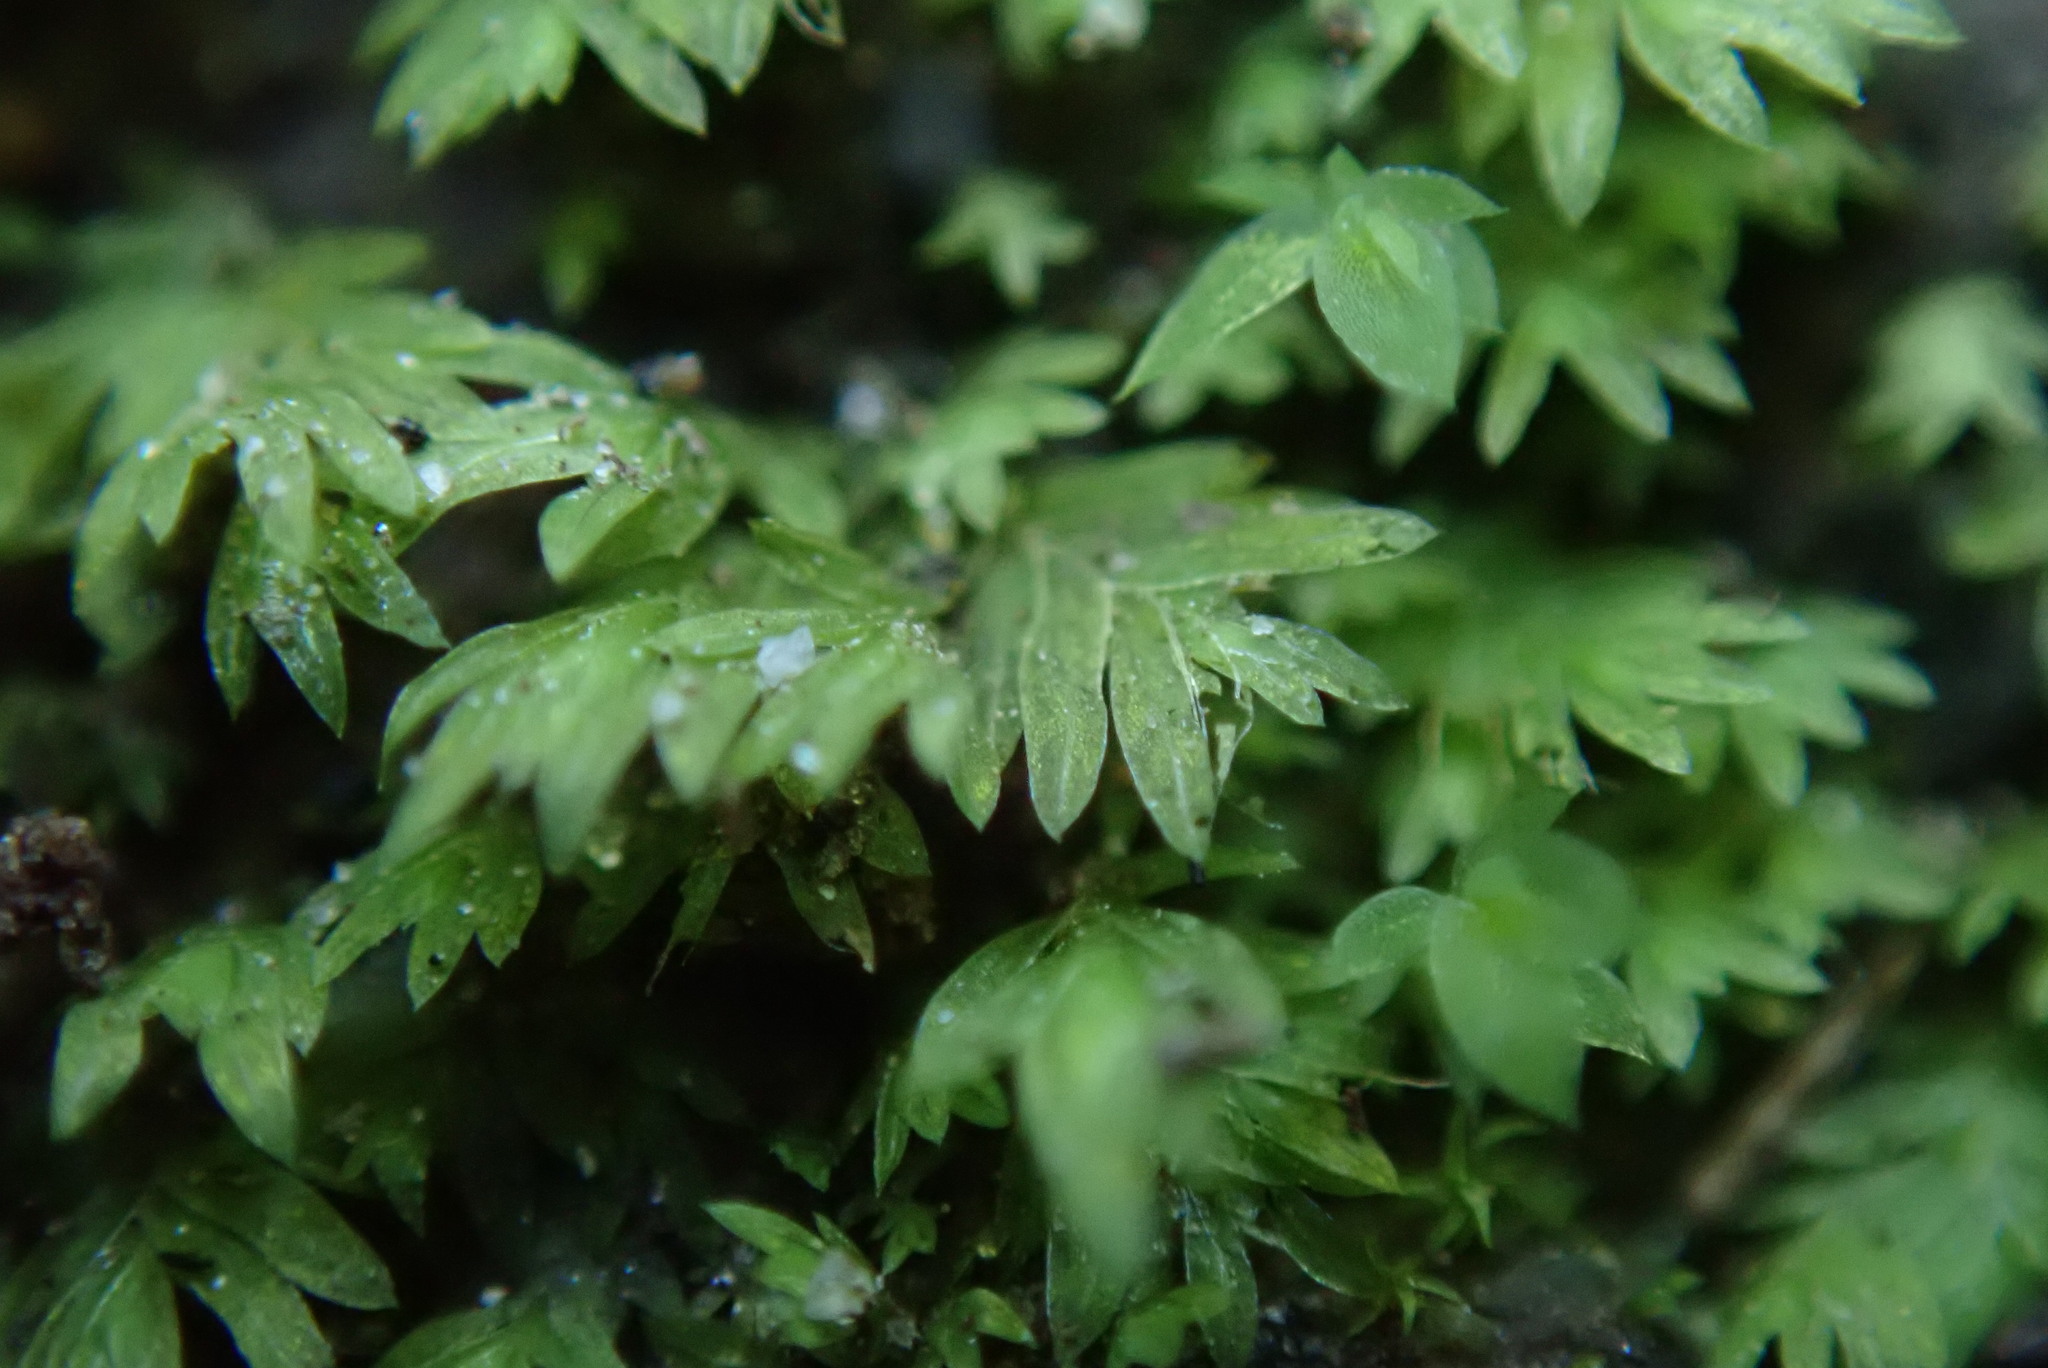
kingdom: Plantae
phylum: Bryophyta
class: Bryopsida
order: Dicranales
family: Fissidentaceae
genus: Fissidens
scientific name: Fissidens bryoides
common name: Lesser pocket moss
